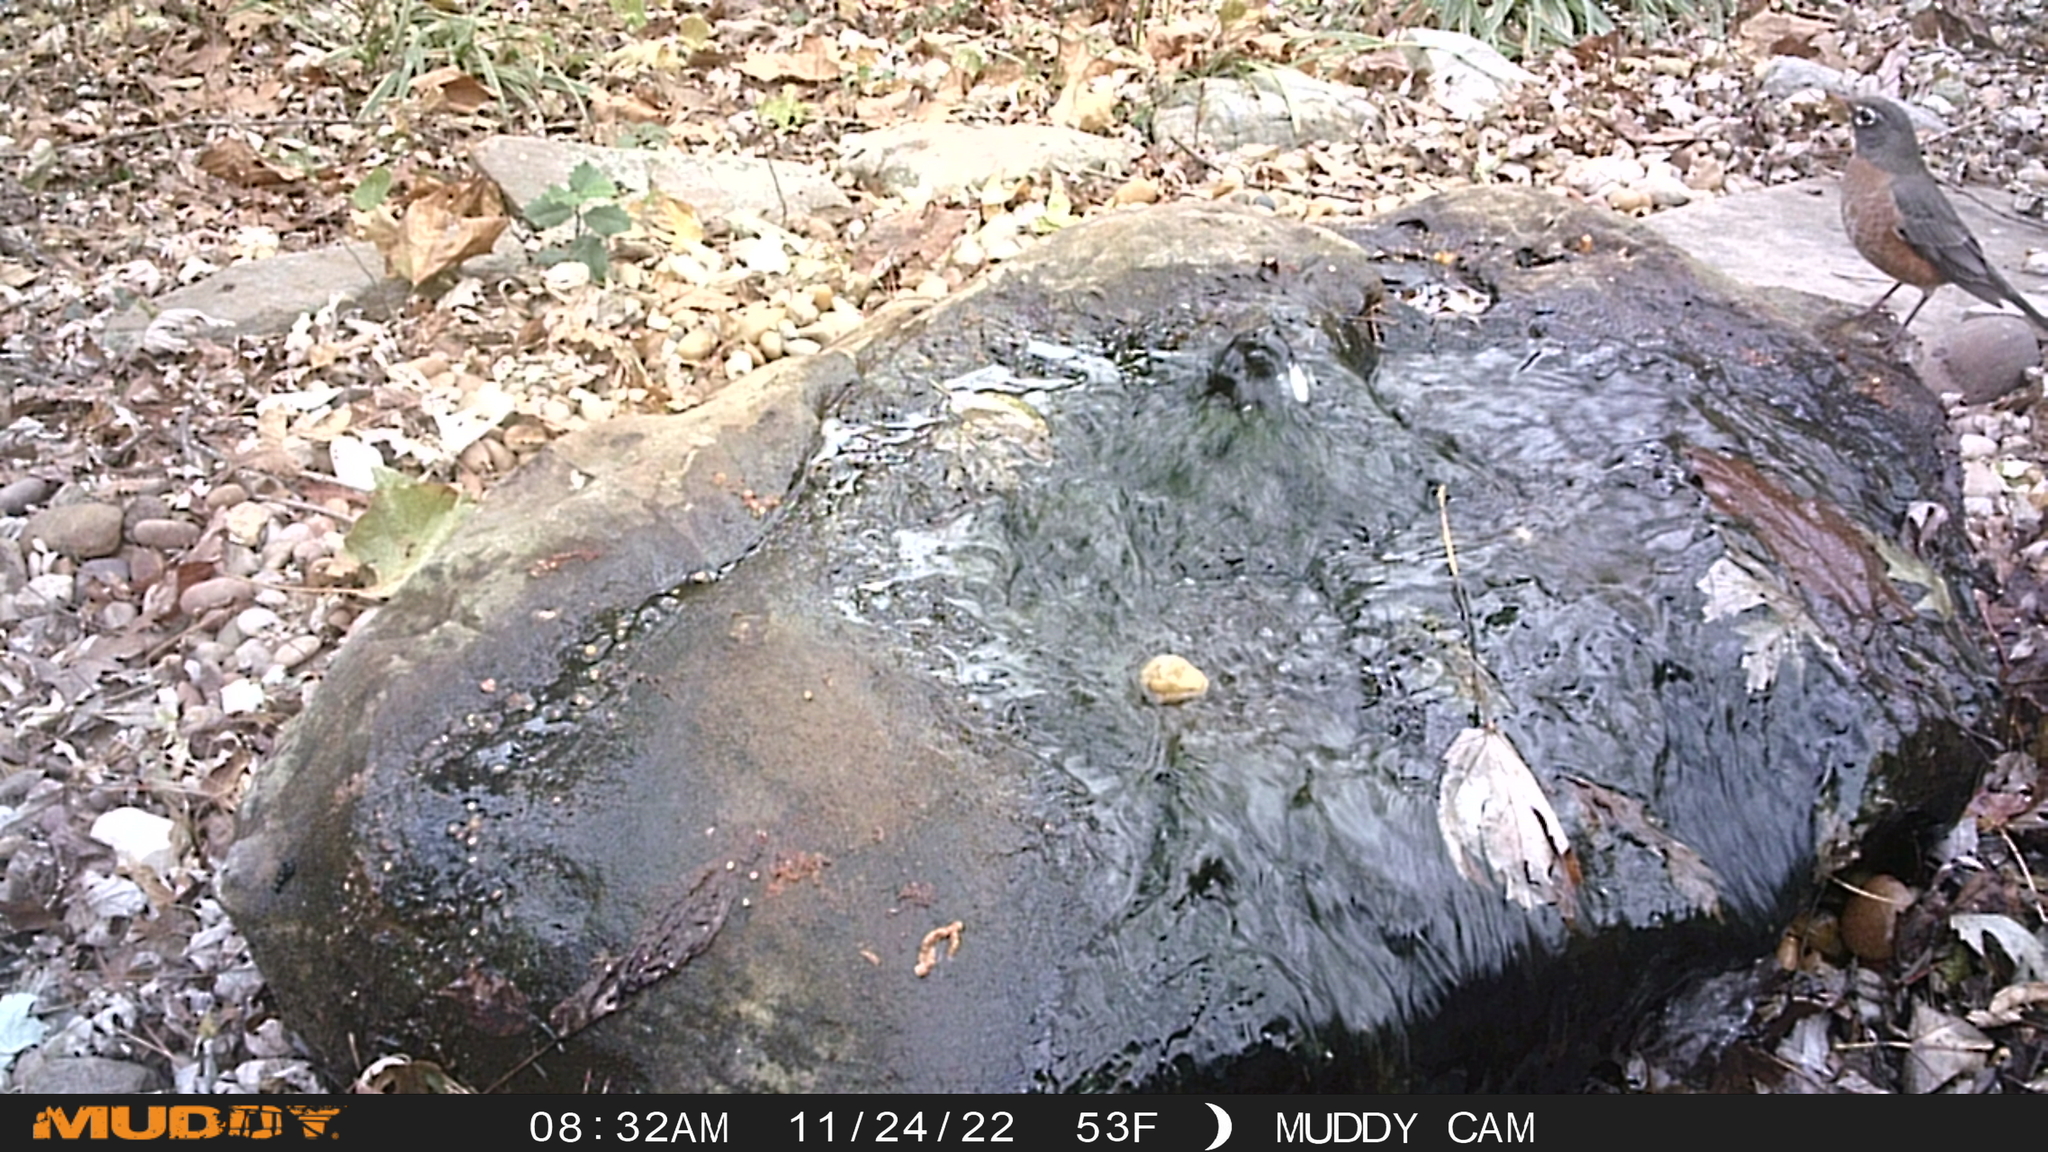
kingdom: Animalia
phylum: Chordata
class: Aves
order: Passeriformes
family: Turdidae
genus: Turdus
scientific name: Turdus migratorius
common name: American robin
